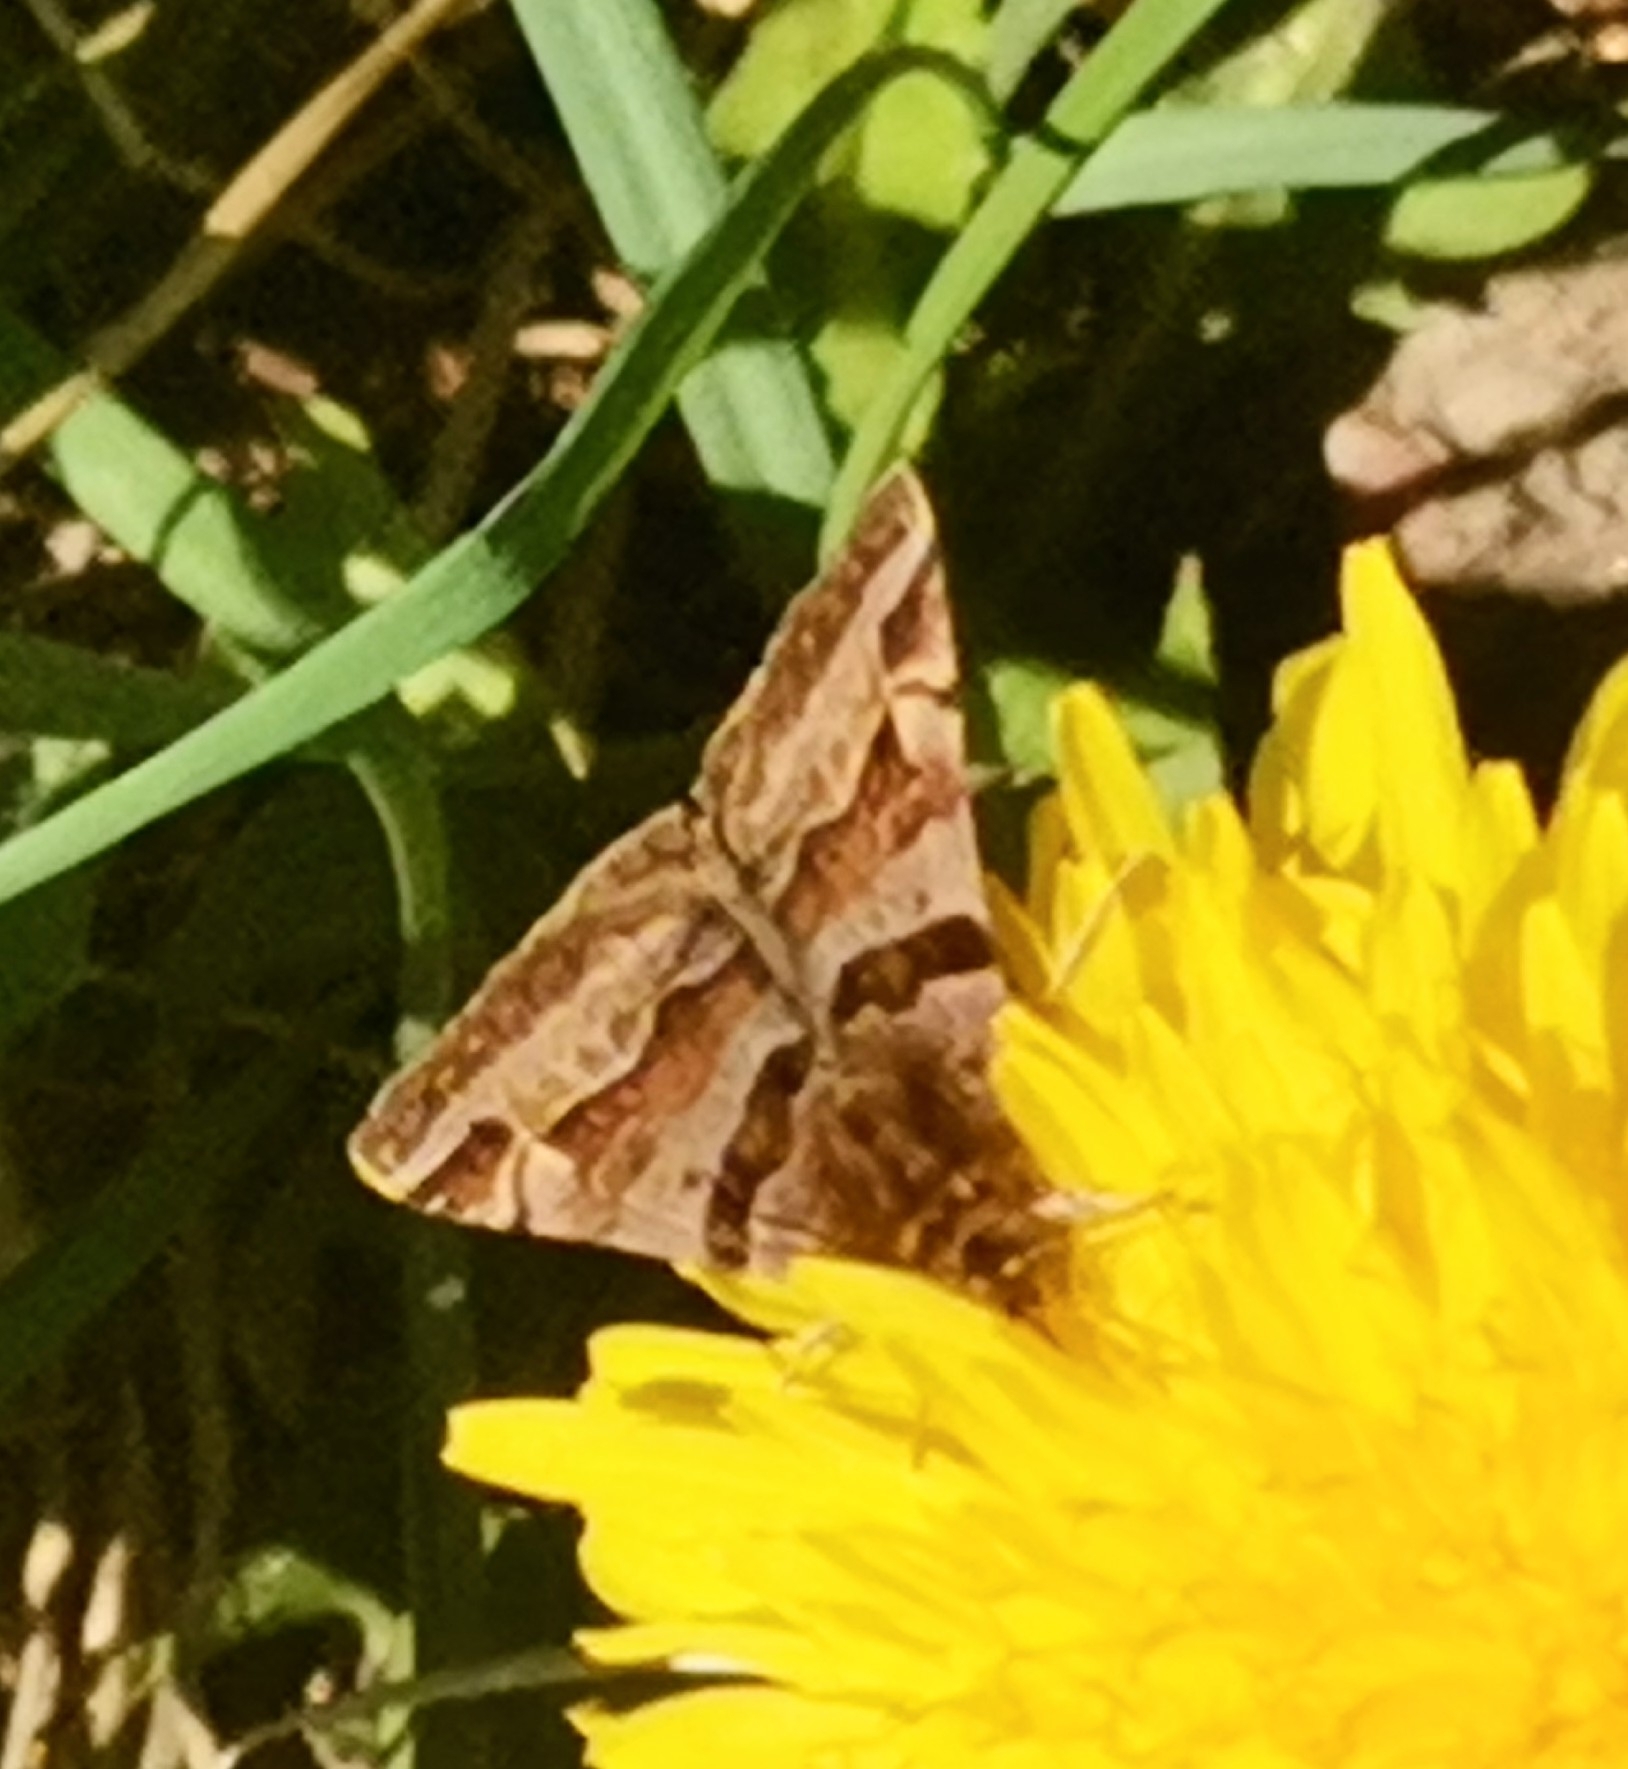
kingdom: Animalia
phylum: Arthropoda
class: Insecta
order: Lepidoptera
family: Erebidae
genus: Euclidia
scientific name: Euclidia glyphica
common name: Burnet companion
